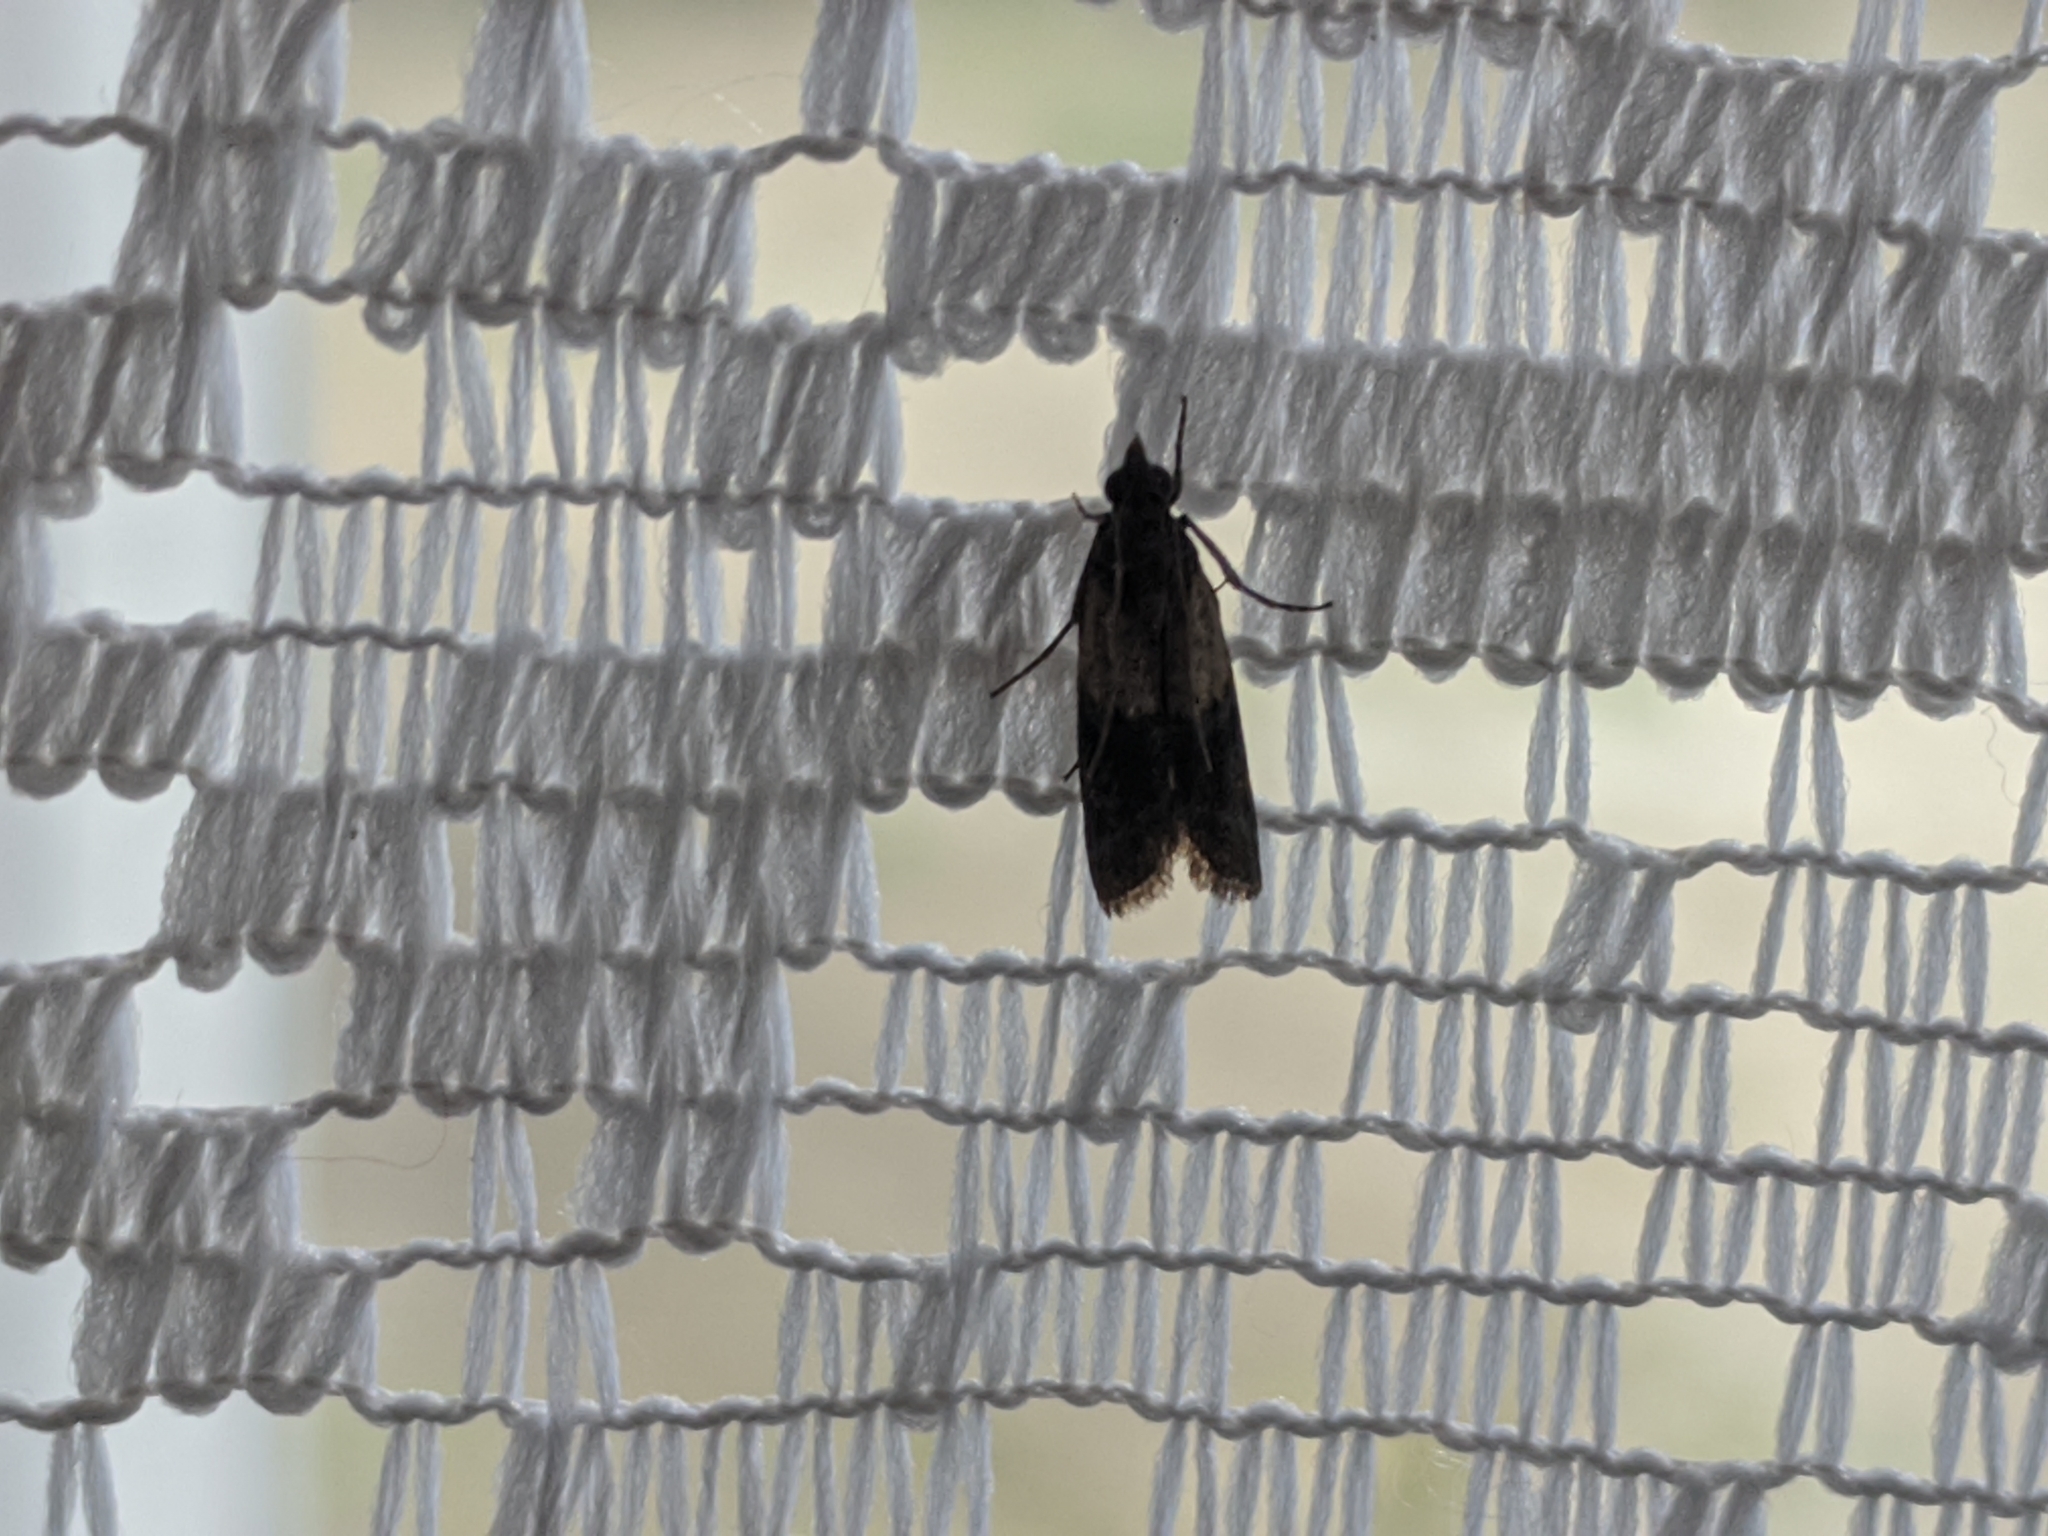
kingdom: Animalia
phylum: Arthropoda
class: Insecta
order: Lepidoptera
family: Pyralidae
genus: Plodia
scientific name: Plodia interpunctella
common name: Indian meal moth
